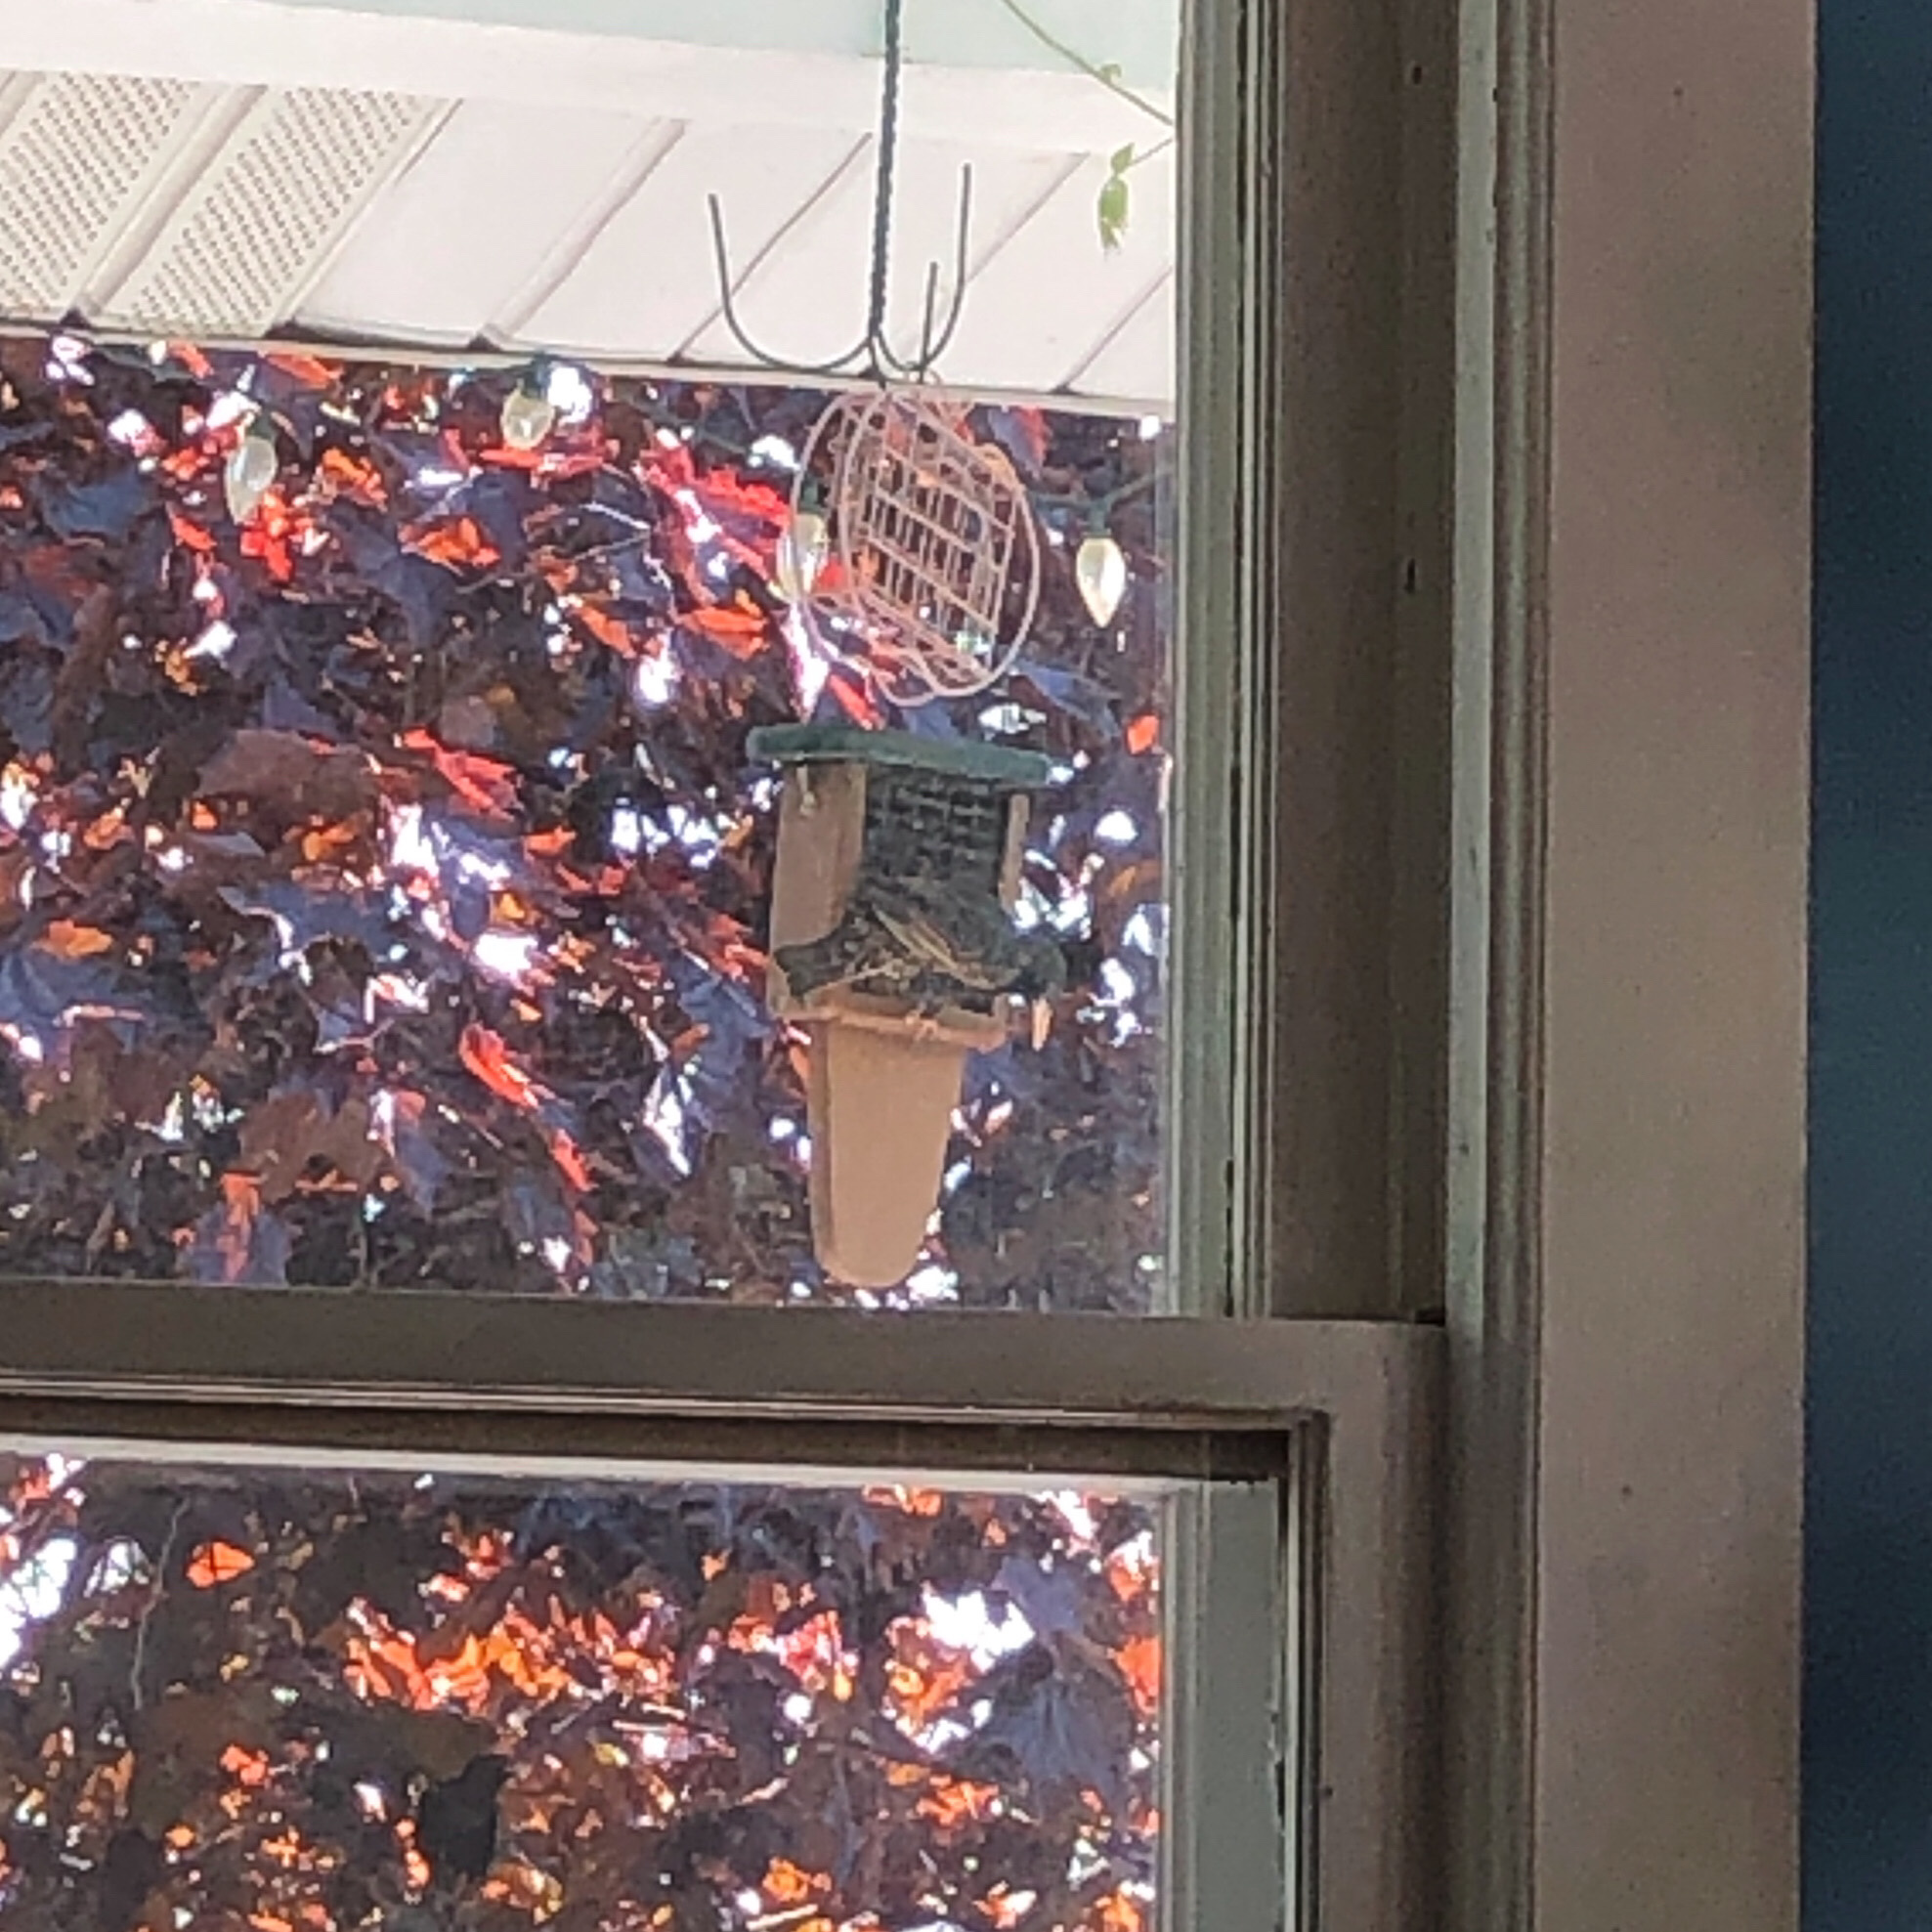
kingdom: Animalia
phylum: Chordata
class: Aves
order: Passeriformes
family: Sturnidae
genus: Sturnus
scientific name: Sturnus vulgaris
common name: Common starling
